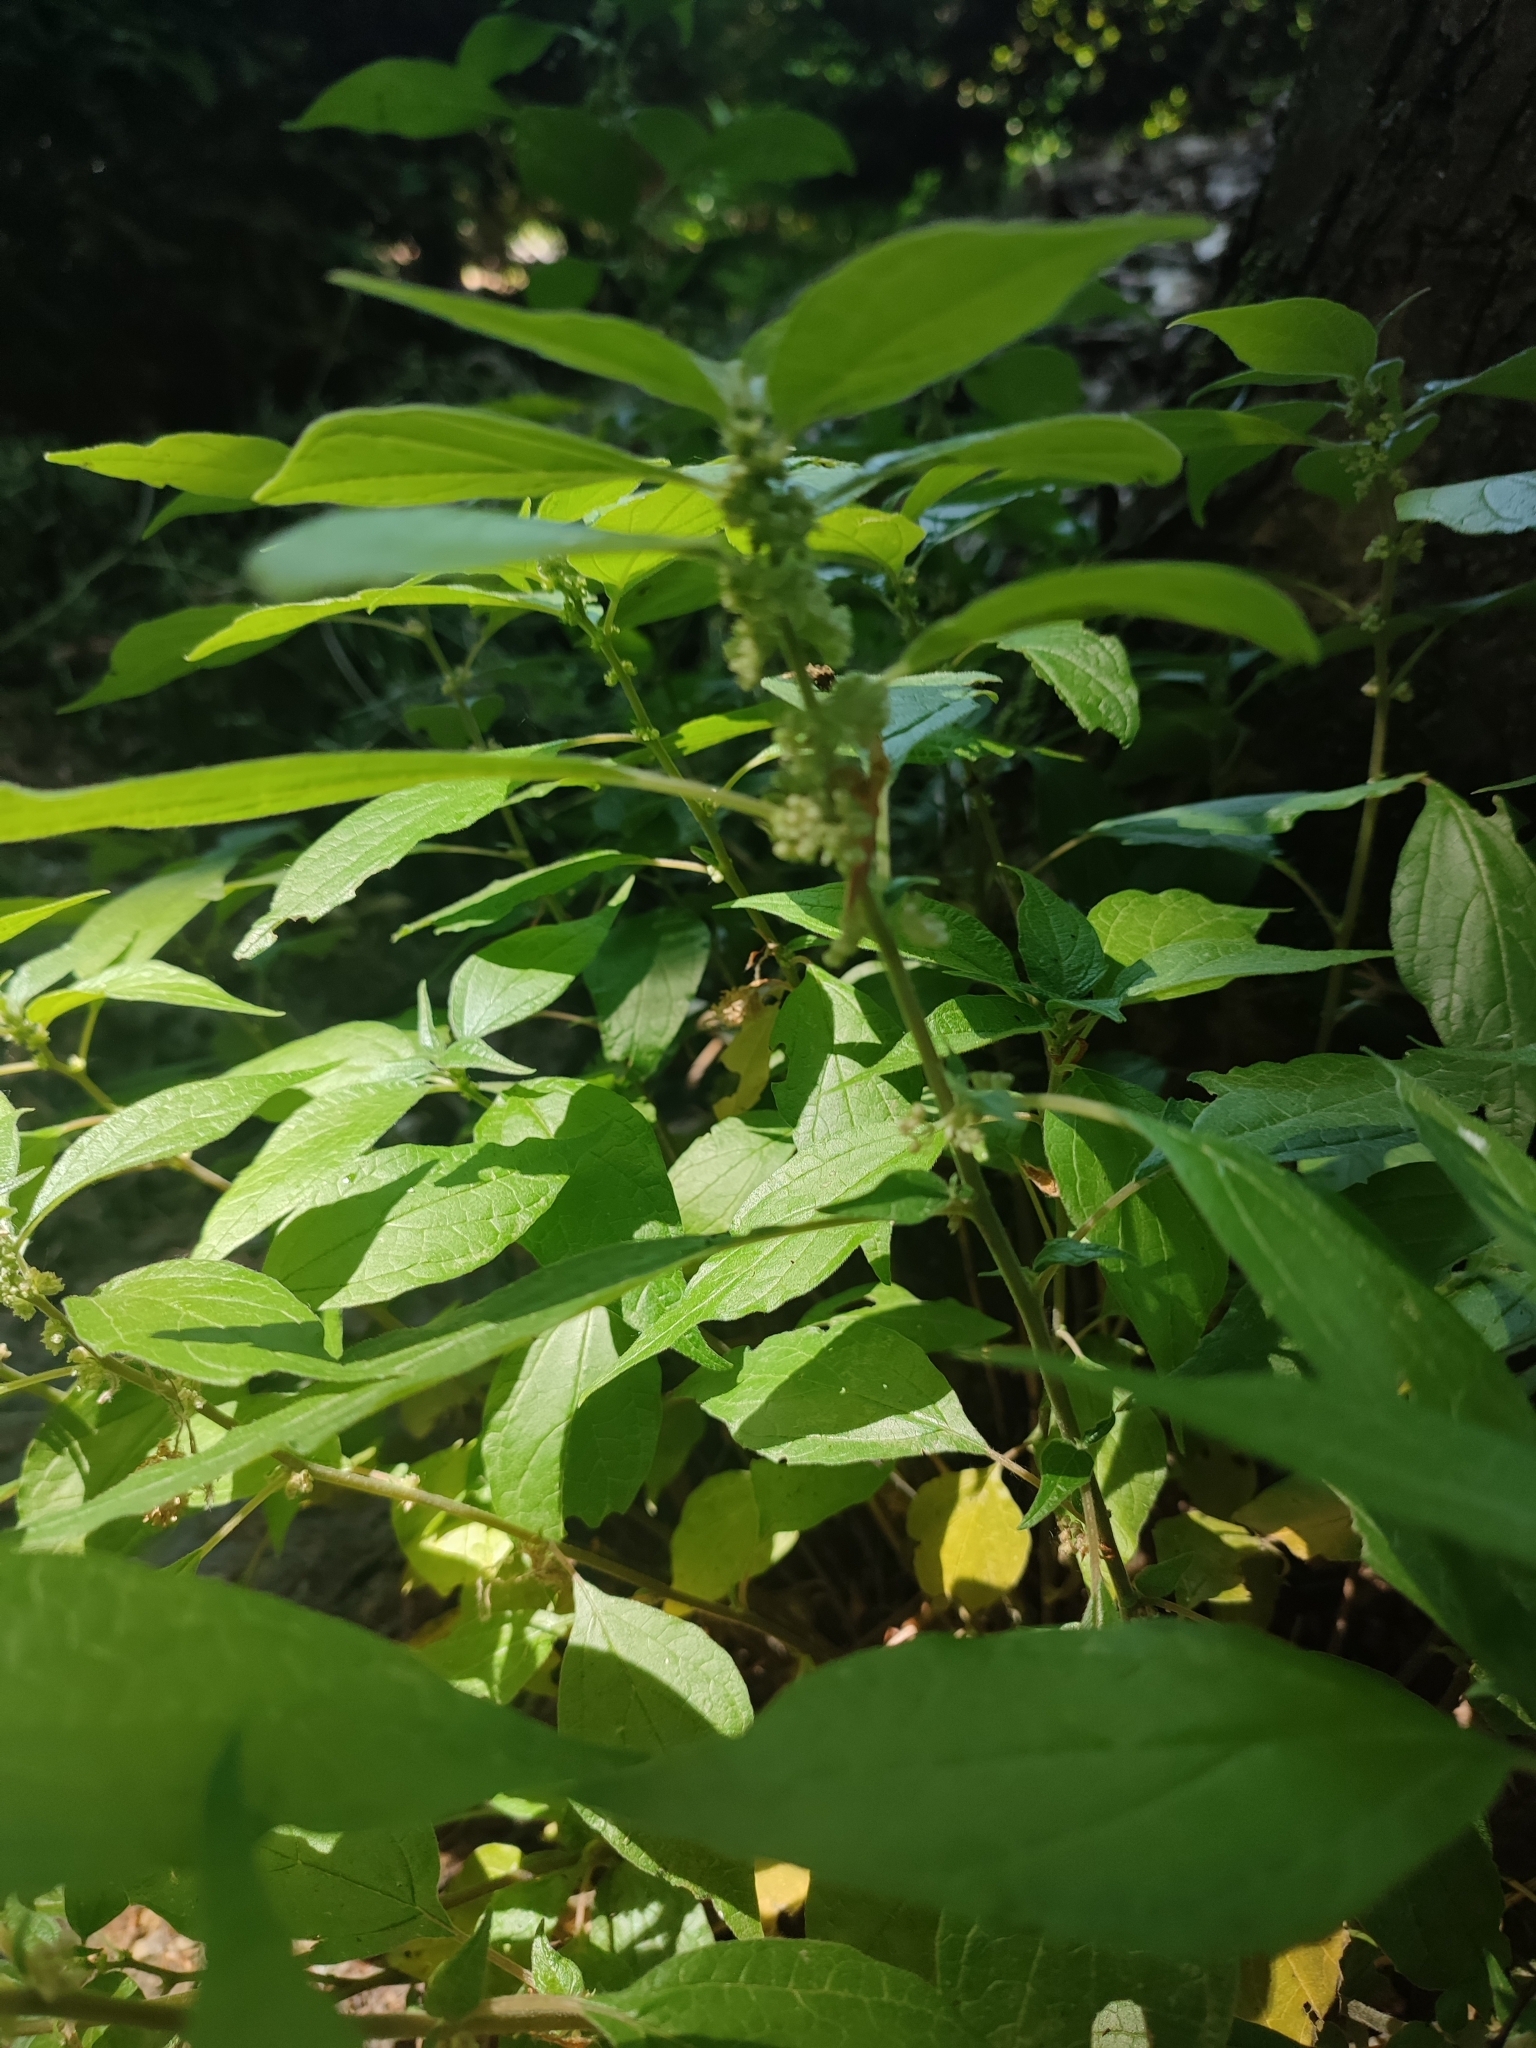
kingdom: Plantae
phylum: Tracheophyta
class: Magnoliopsida
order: Rosales
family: Urticaceae
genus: Parietaria
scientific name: Parietaria officinalis
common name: Eastern pellitory-of-the-wall
